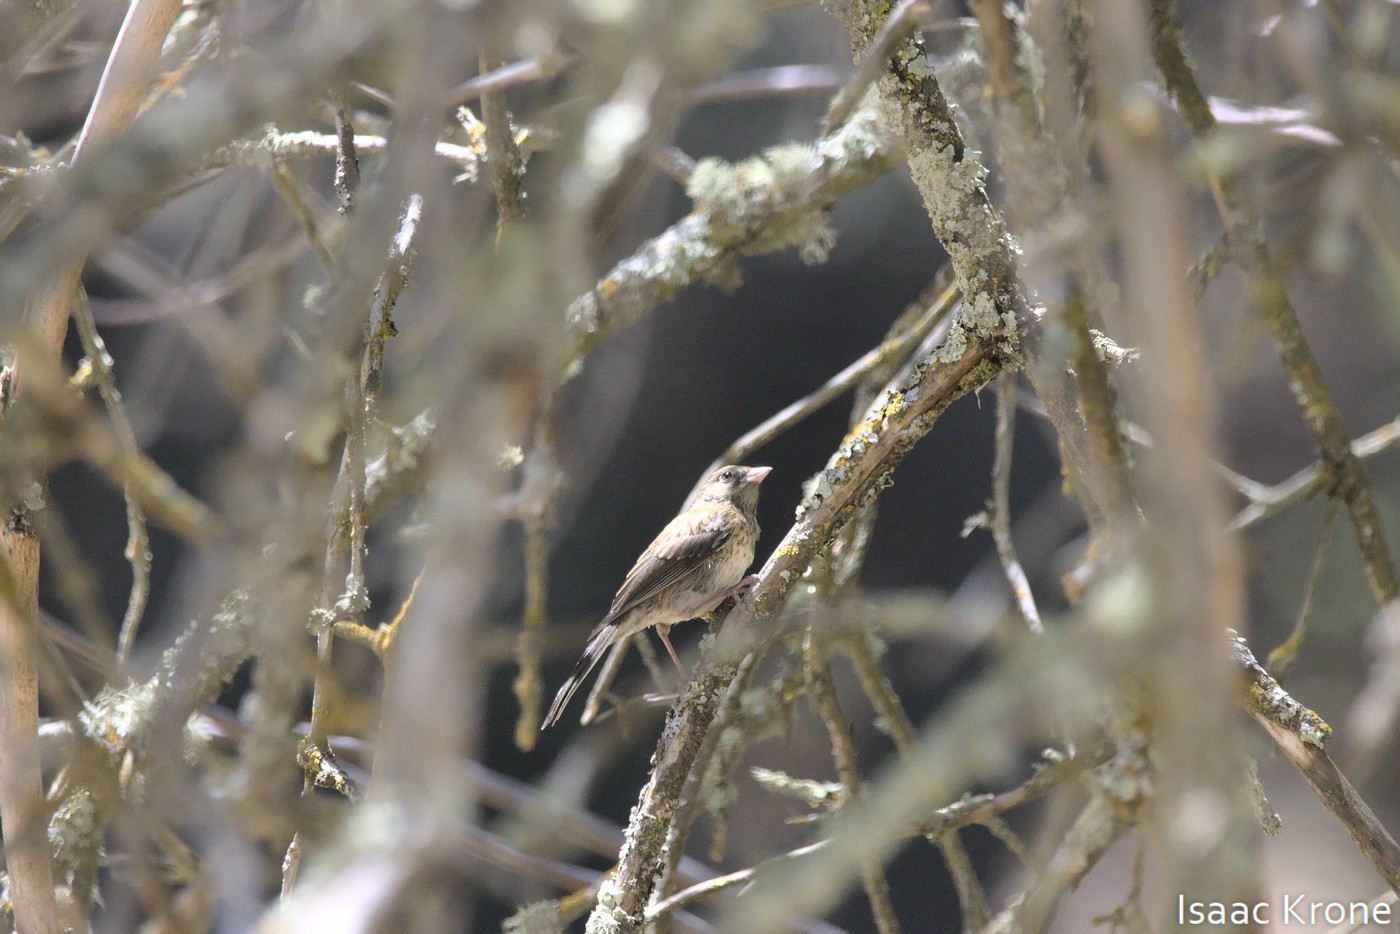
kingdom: Animalia
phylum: Chordata
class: Aves
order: Passeriformes
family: Passerellidae
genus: Junco
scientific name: Junco hyemalis
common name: Dark-eyed junco
